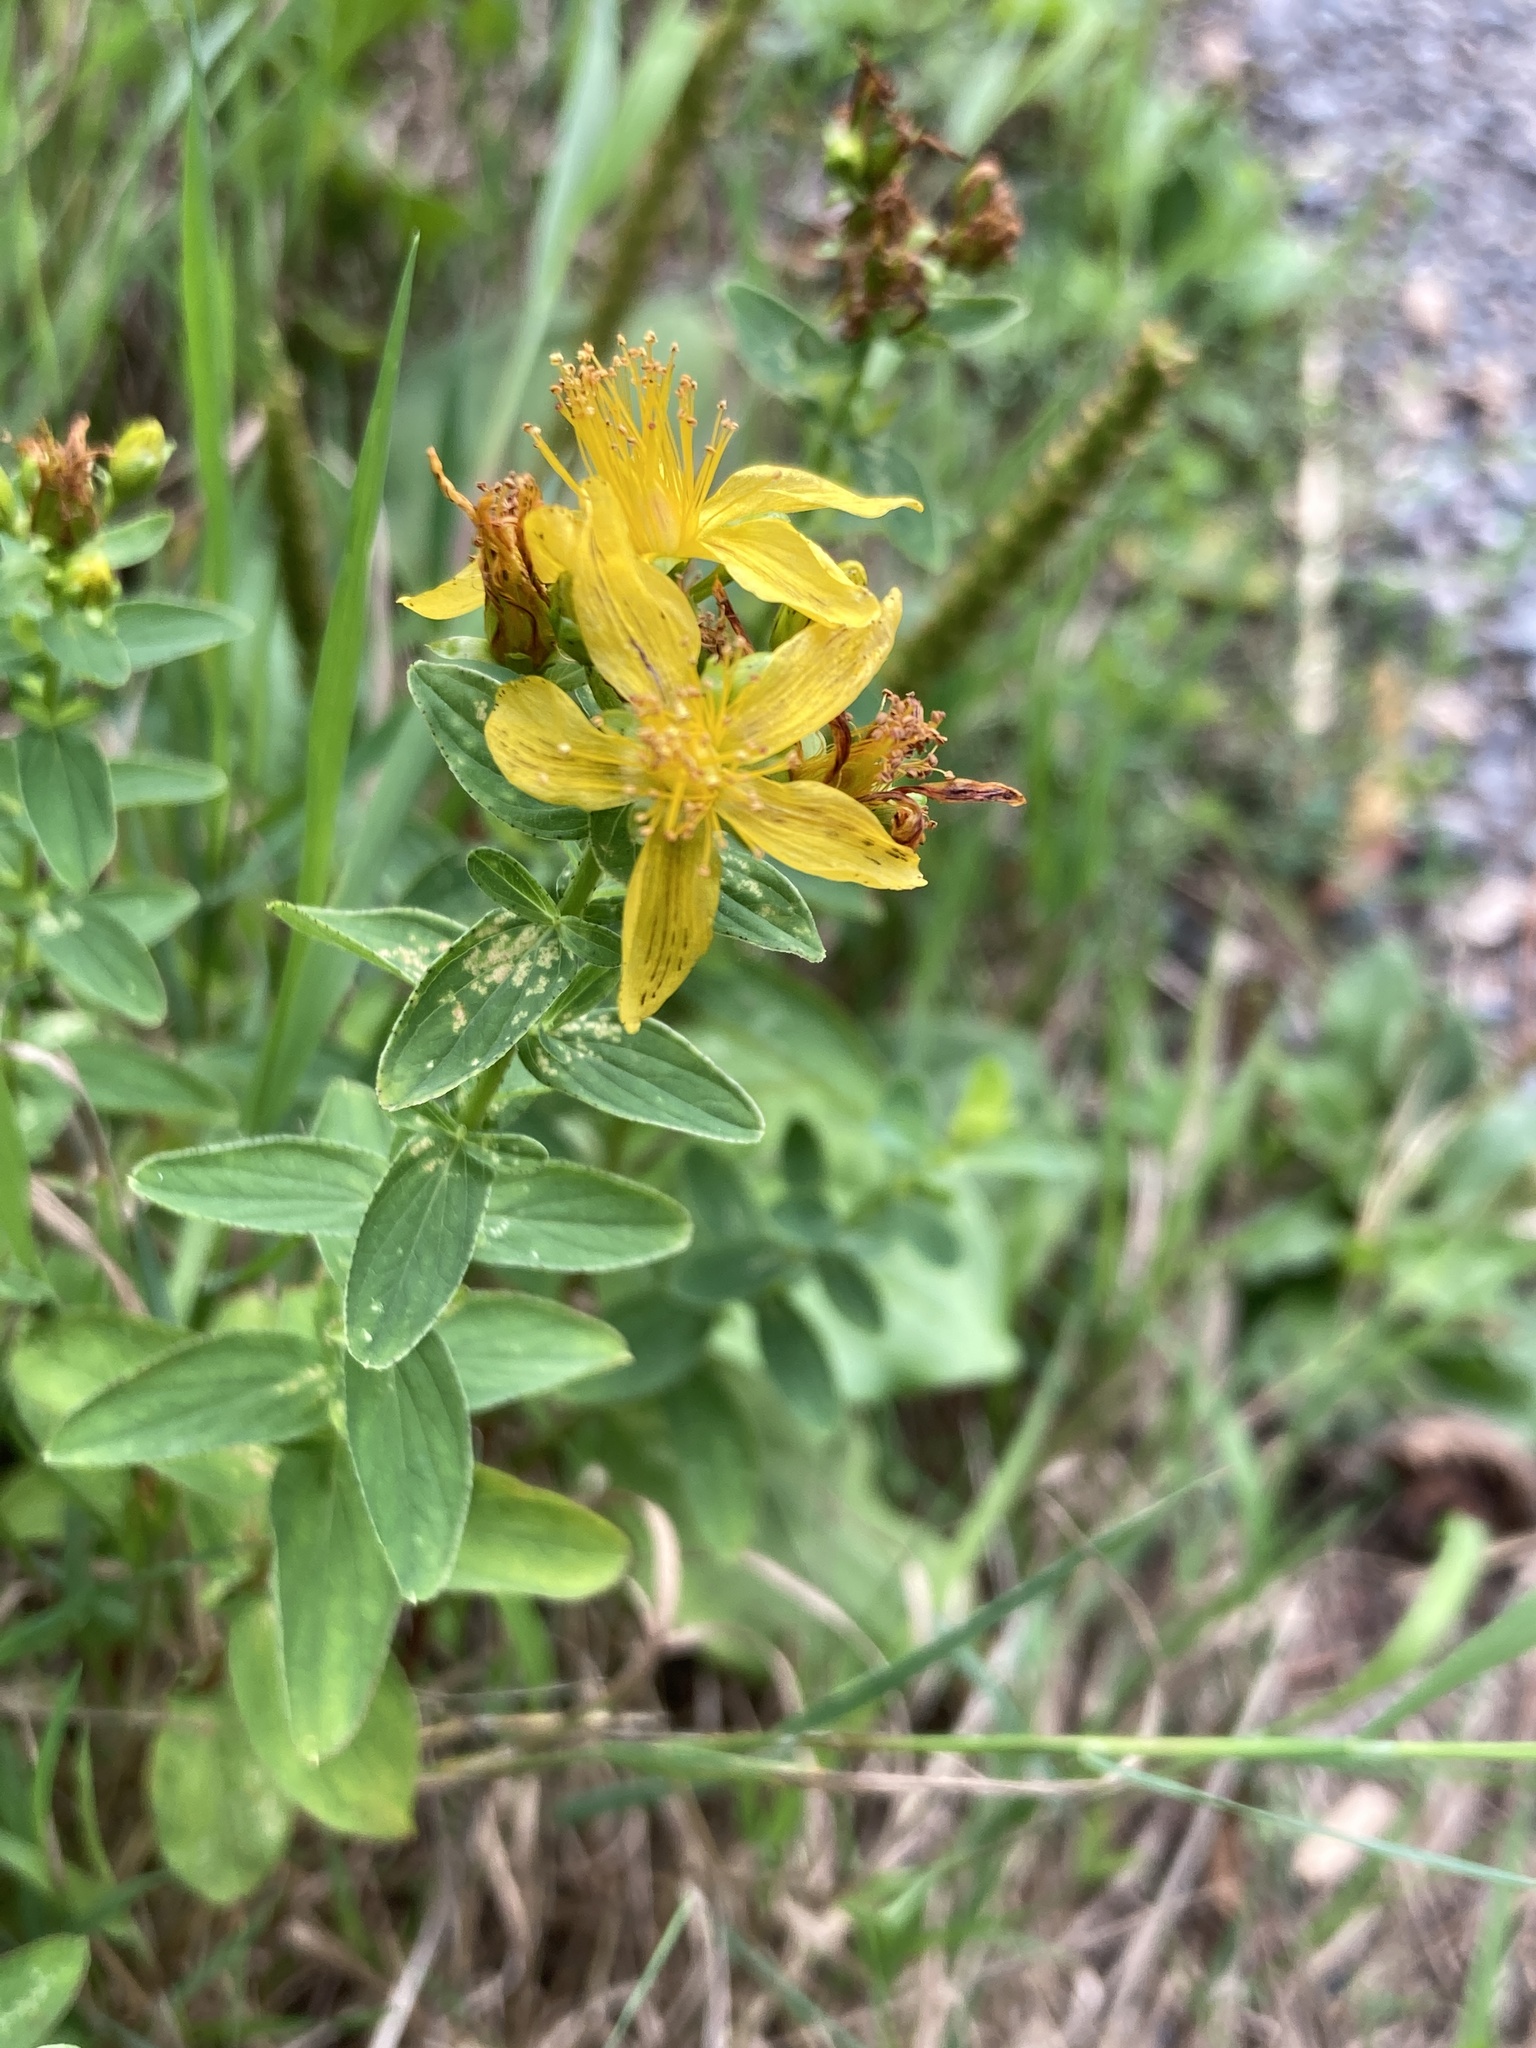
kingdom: Plantae
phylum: Tracheophyta
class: Magnoliopsida
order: Malpighiales
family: Hypericaceae
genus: Hypericum
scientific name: Hypericum dubium
